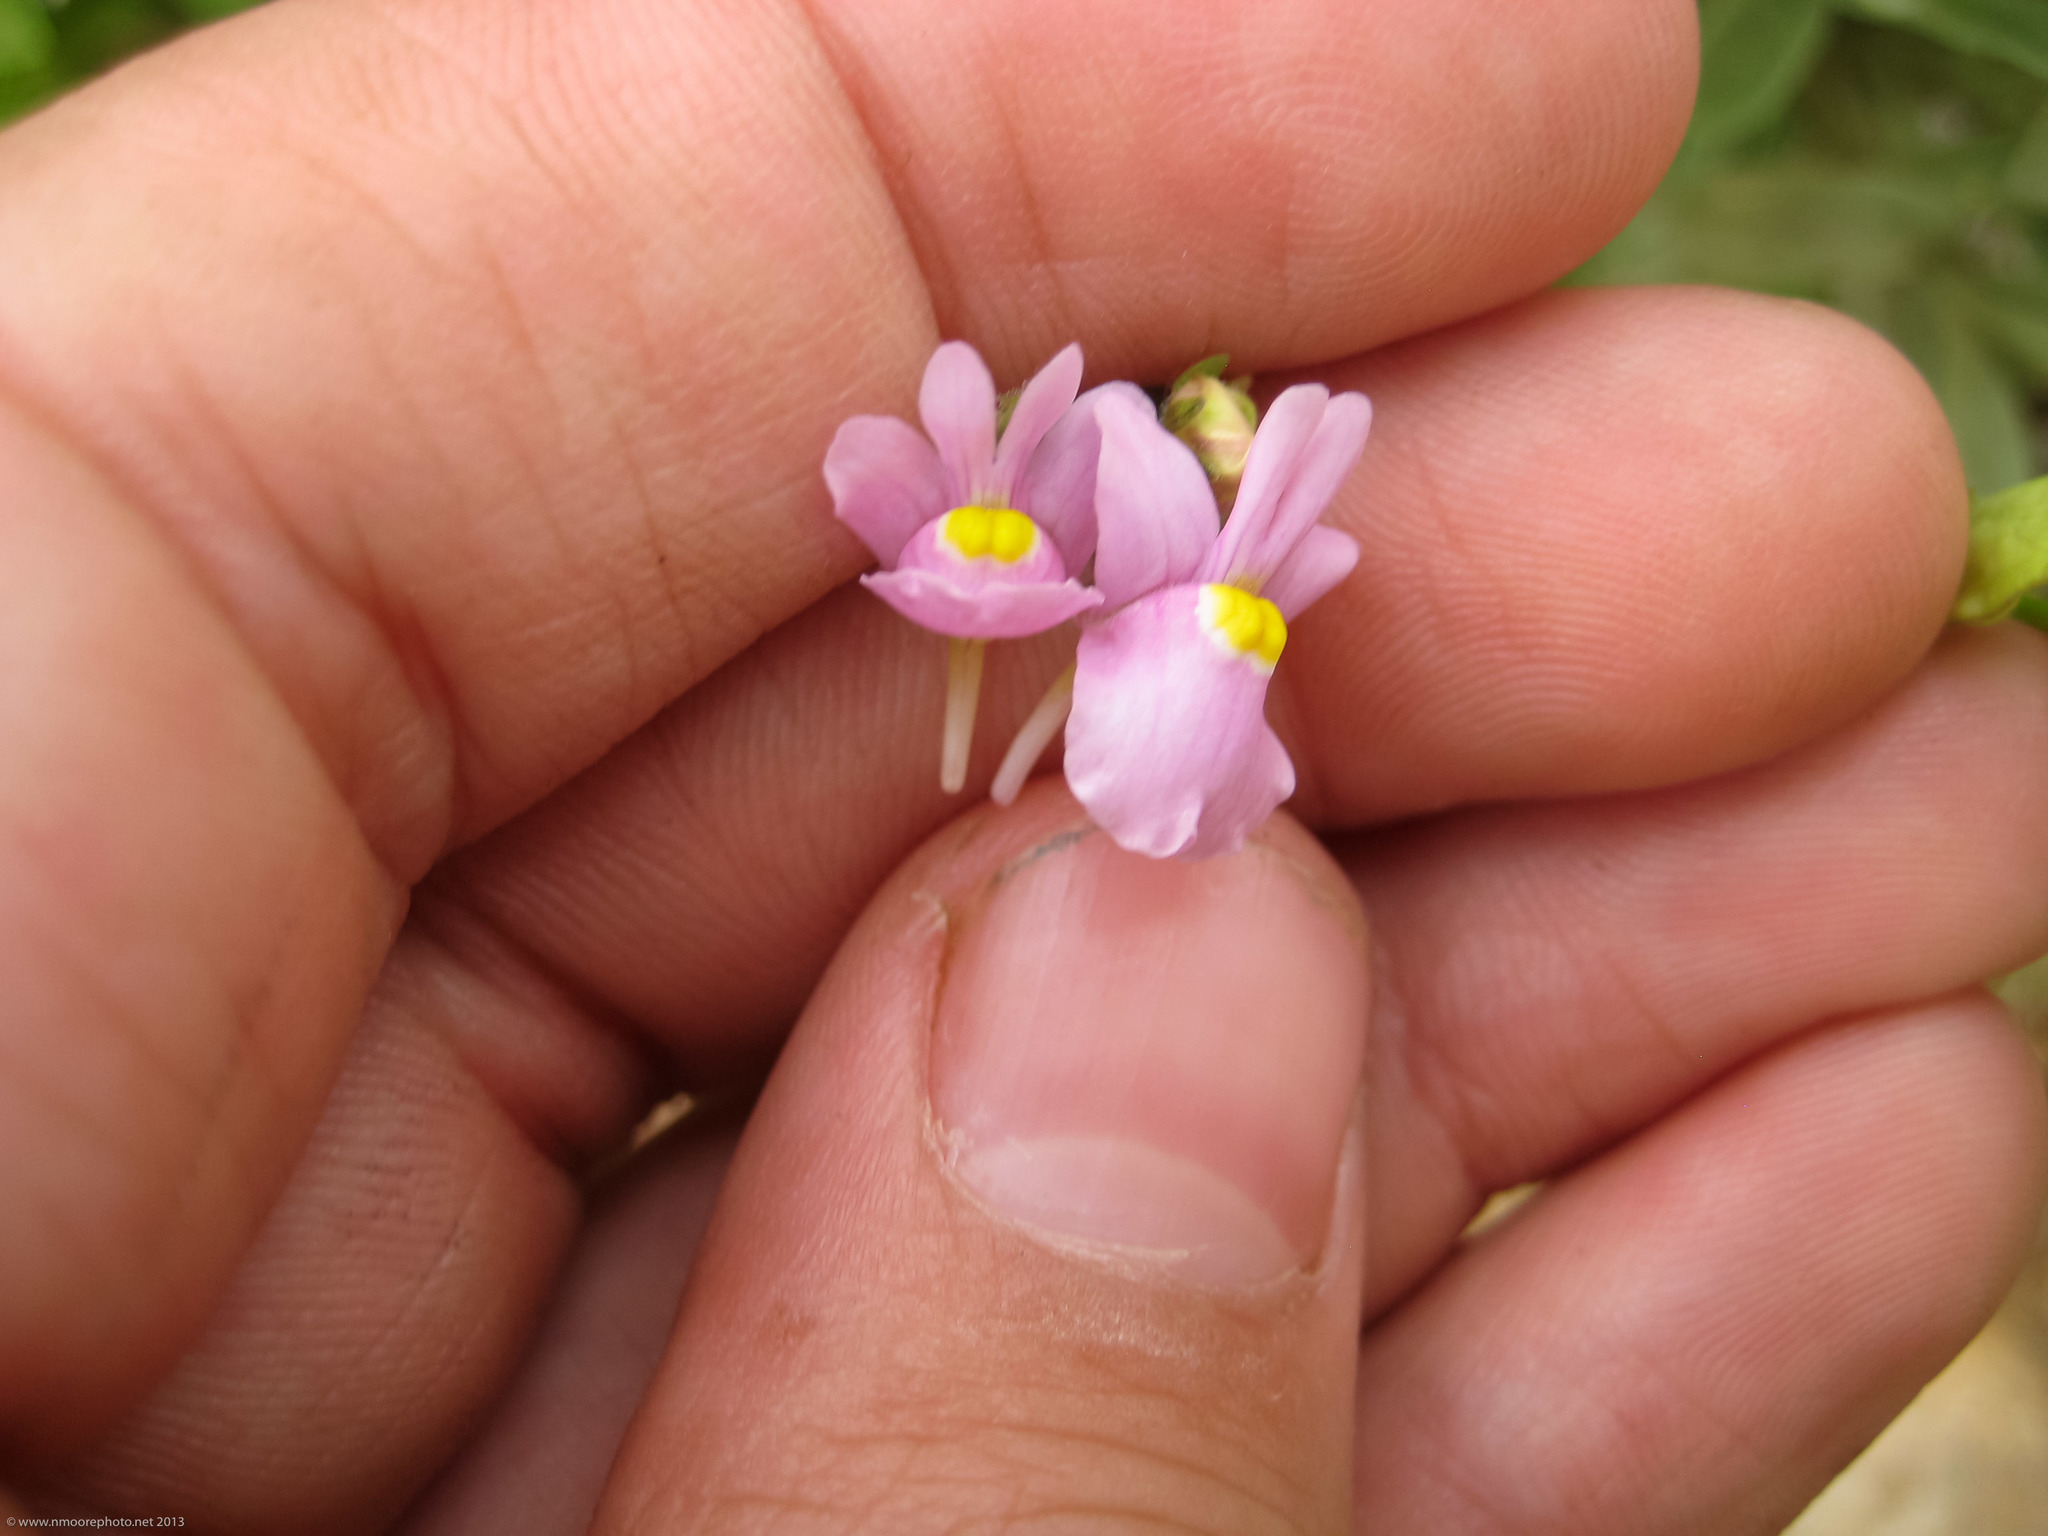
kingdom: Plantae
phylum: Tracheophyta
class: Magnoliopsida
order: Lamiales
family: Scrophulariaceae
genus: Nemesia
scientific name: Nemesia denticulata
